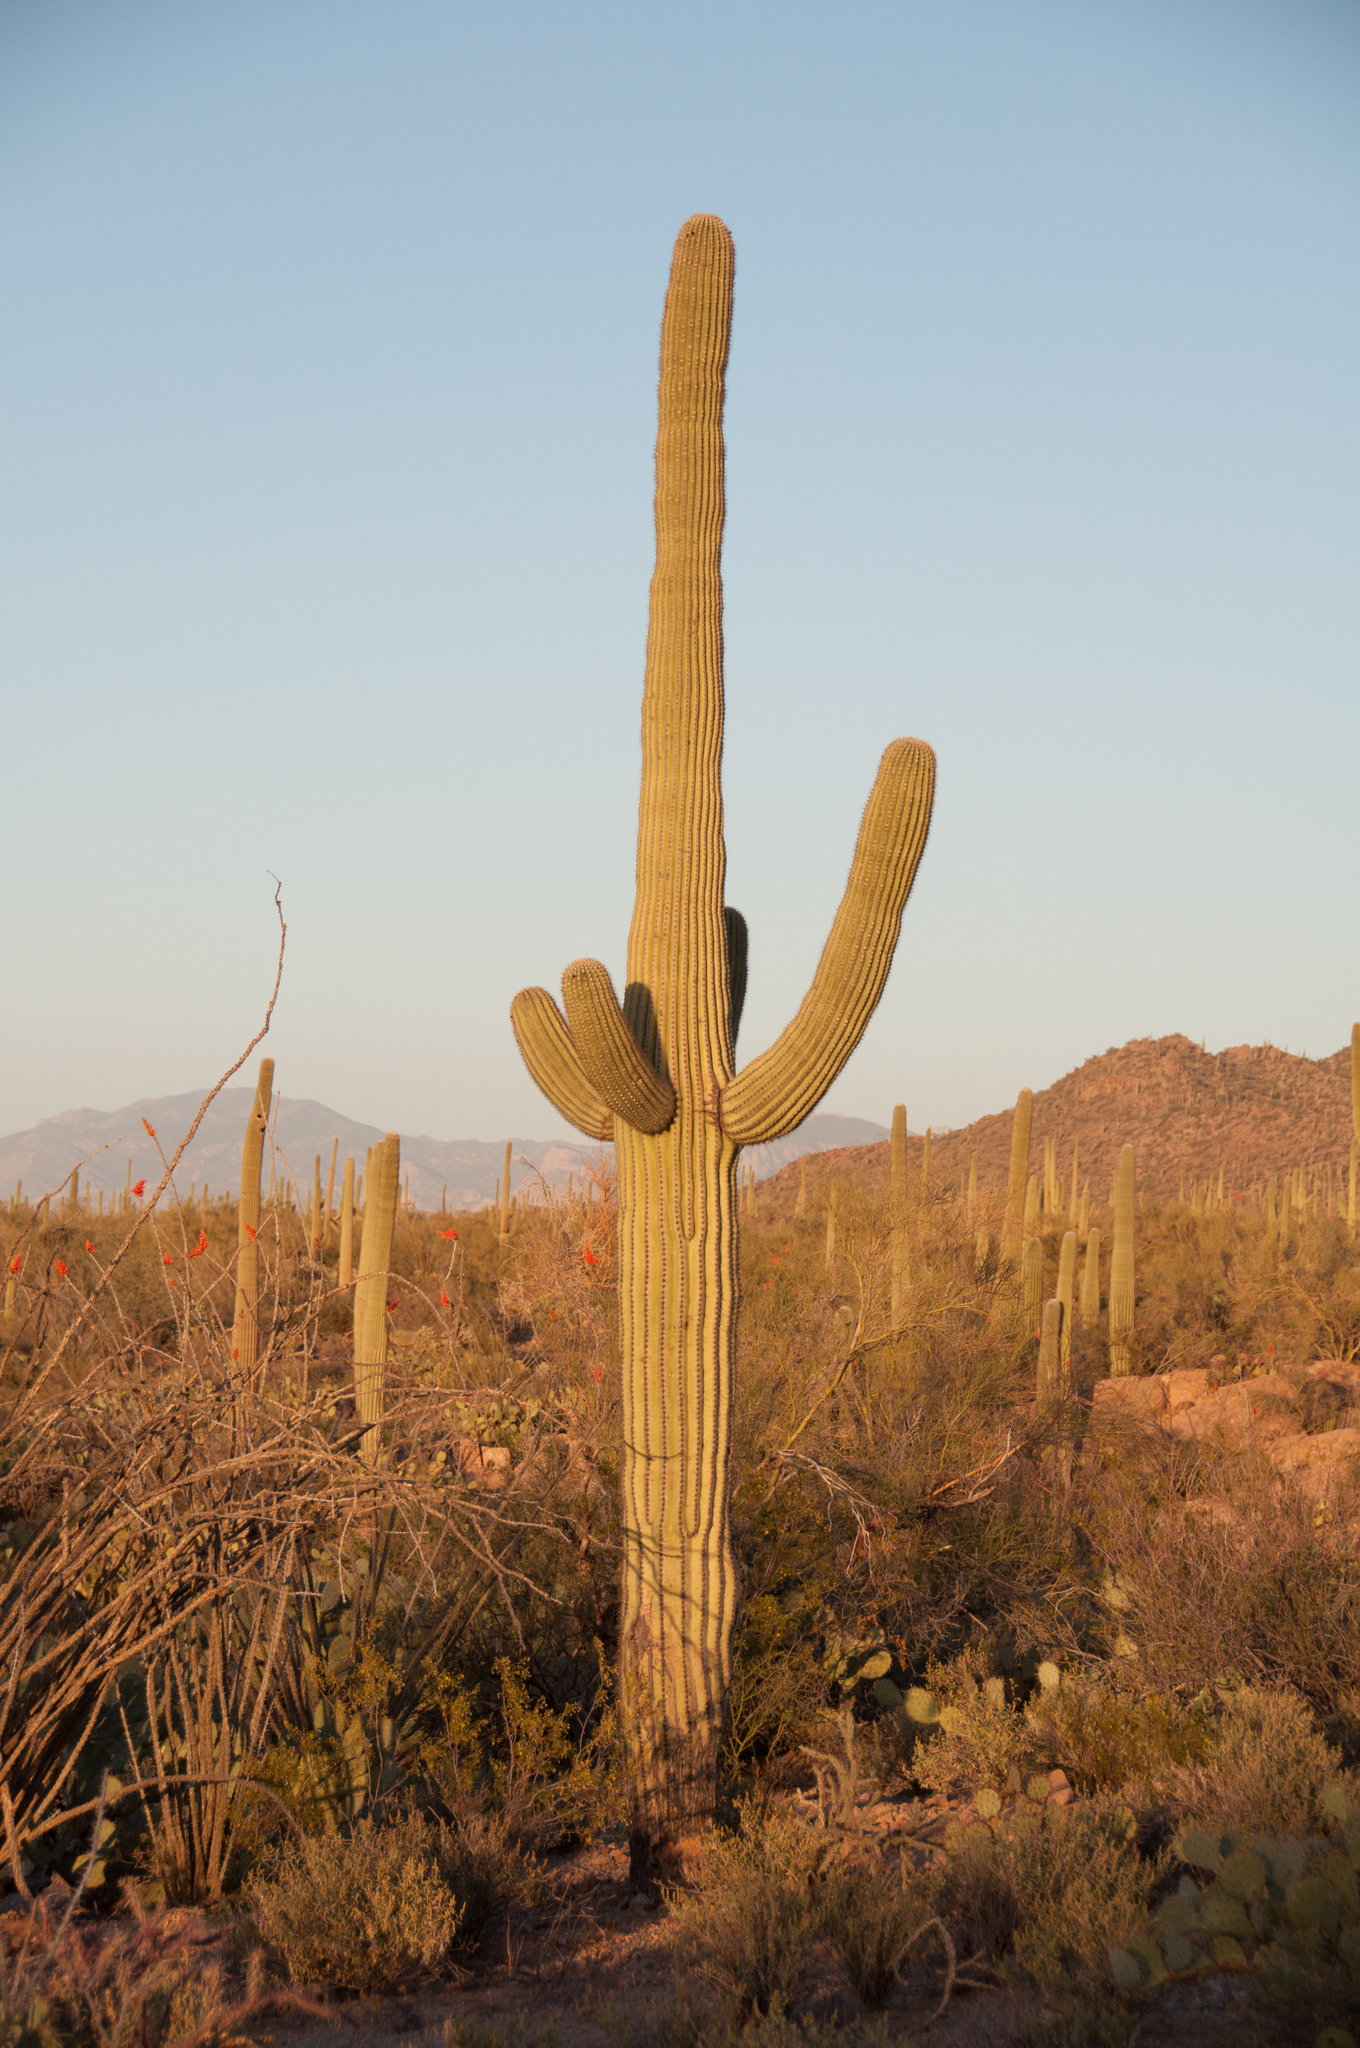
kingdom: Plantae
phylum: Tracheophyta
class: Magnoliopsida
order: Caryophyllales
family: Cactaceae
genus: Carnegiea
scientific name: Carnegiea gigantea
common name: Saguaro
